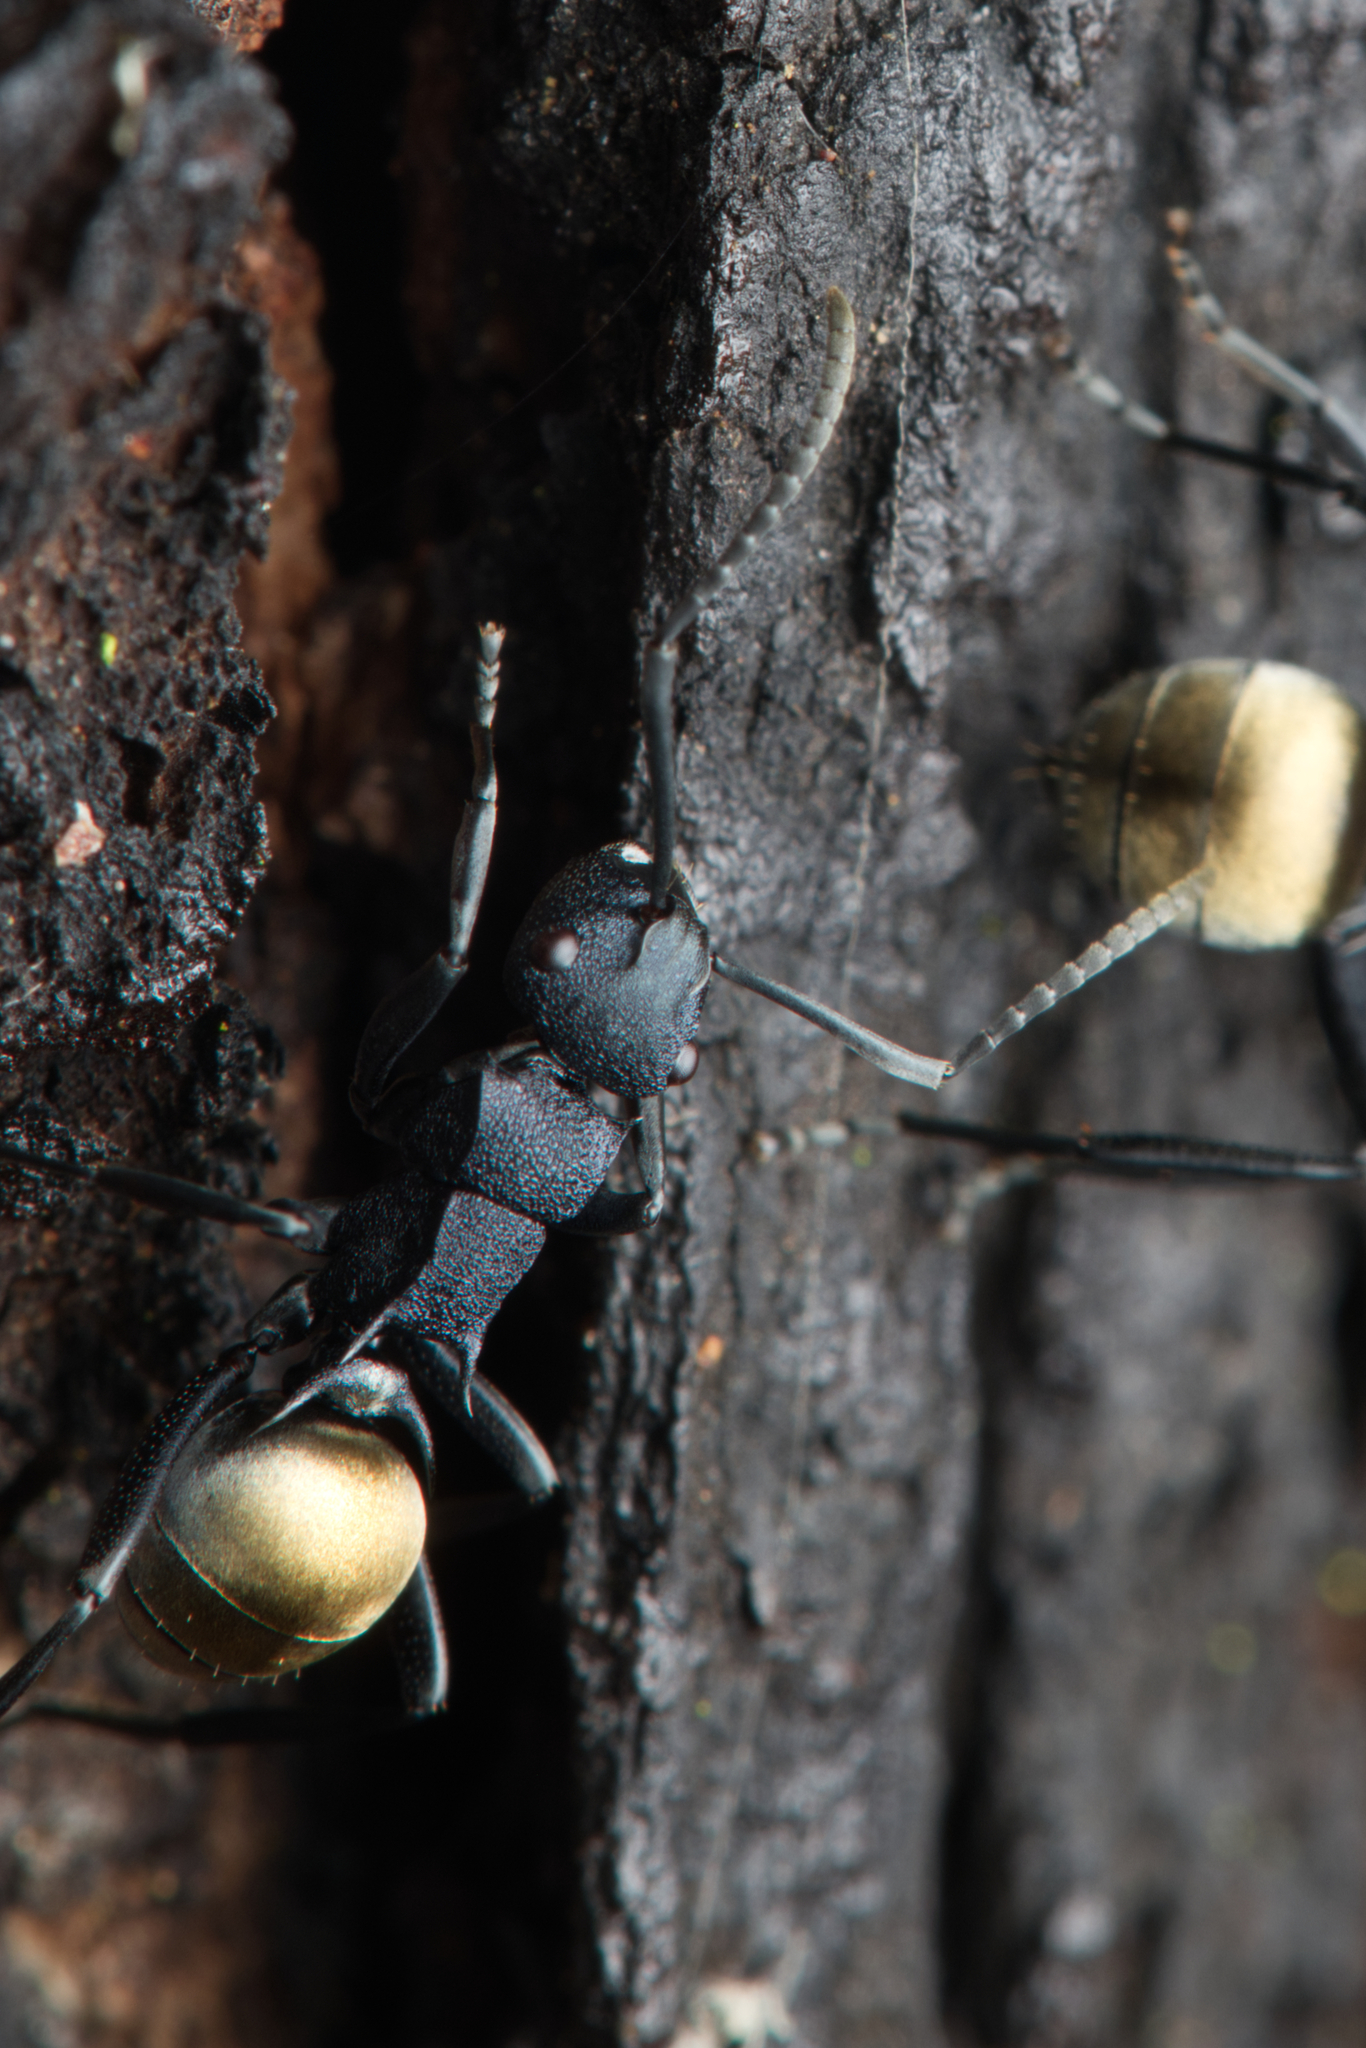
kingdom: Animalia
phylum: Arthropoda
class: Insecta
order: Hymenoptera
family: Formicidae
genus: Polyrhachis
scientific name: Polyrhachis euterpe
